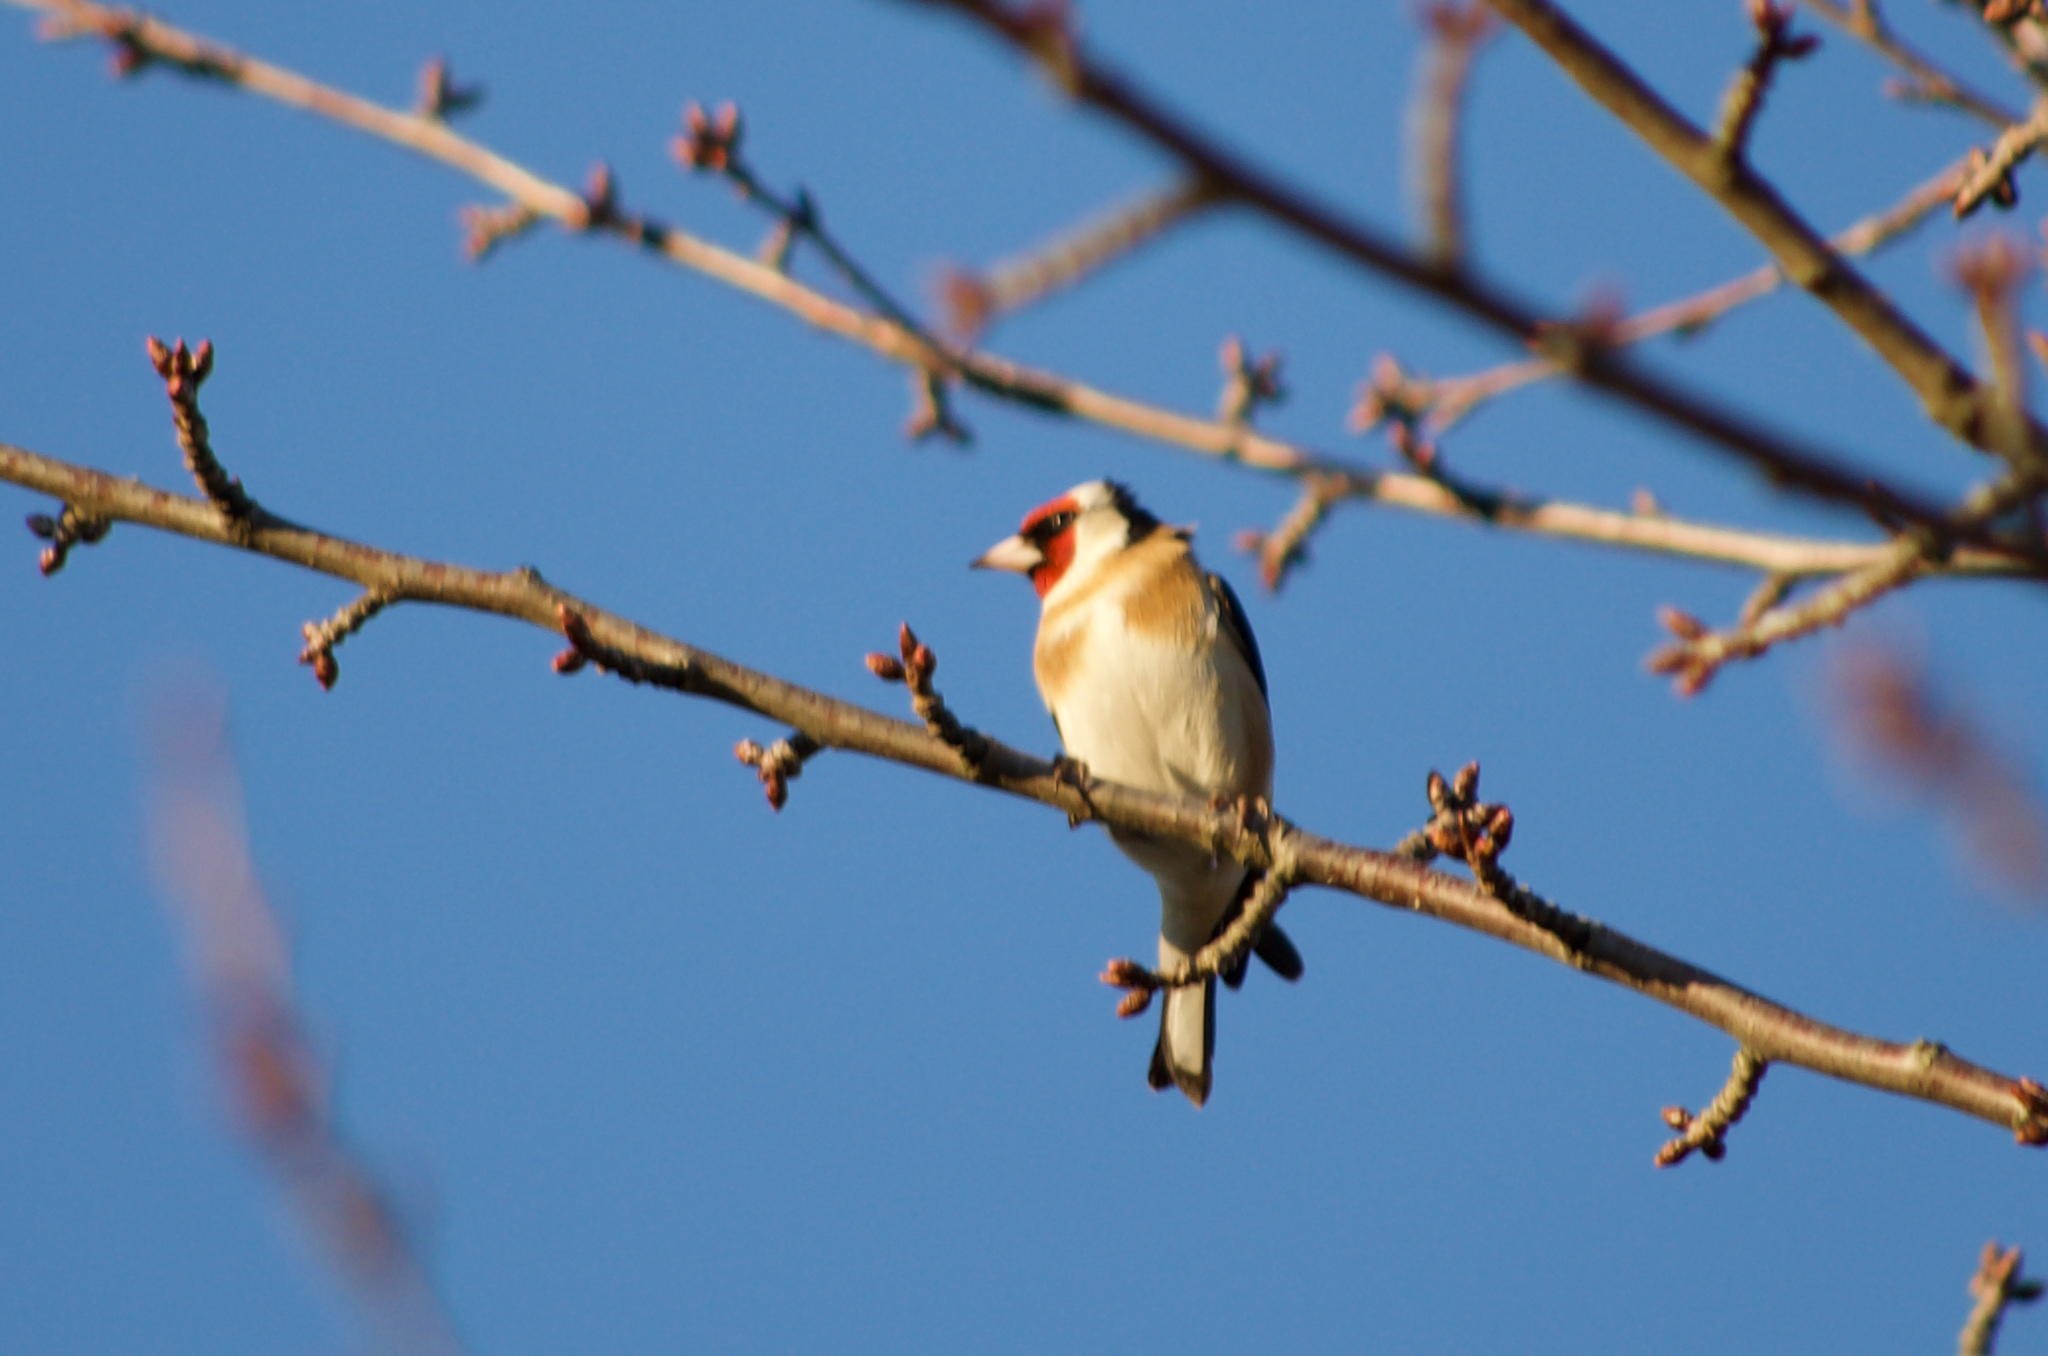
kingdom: Animalia
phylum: Chordata
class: Aves
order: Passeriformes
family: Fringillidae
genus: Carduelis
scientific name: Carduelis carduelis
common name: European goldfinch
